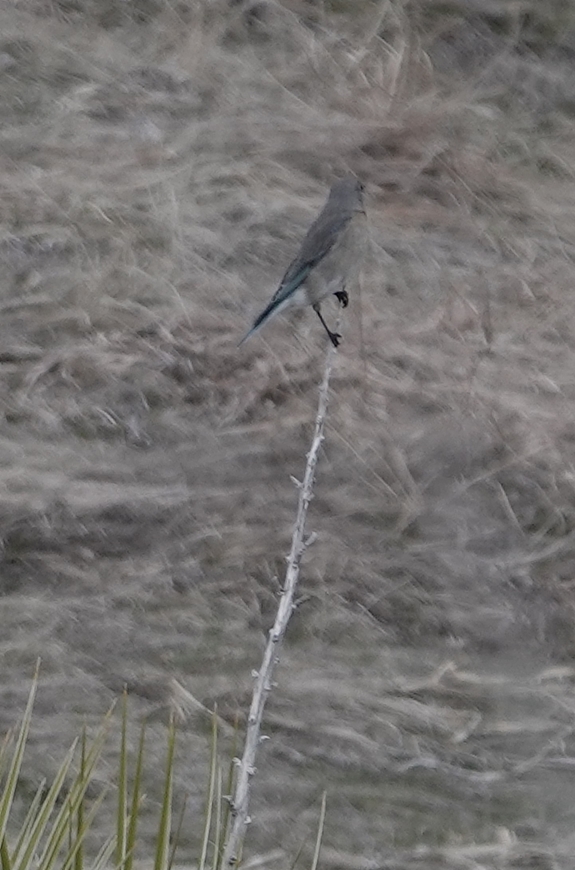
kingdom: Animalia
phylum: Chordata
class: Aves
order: Passeriformes
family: Turdidae
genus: Sialia
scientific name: Sialia currucoides
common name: Mountain bluebird
